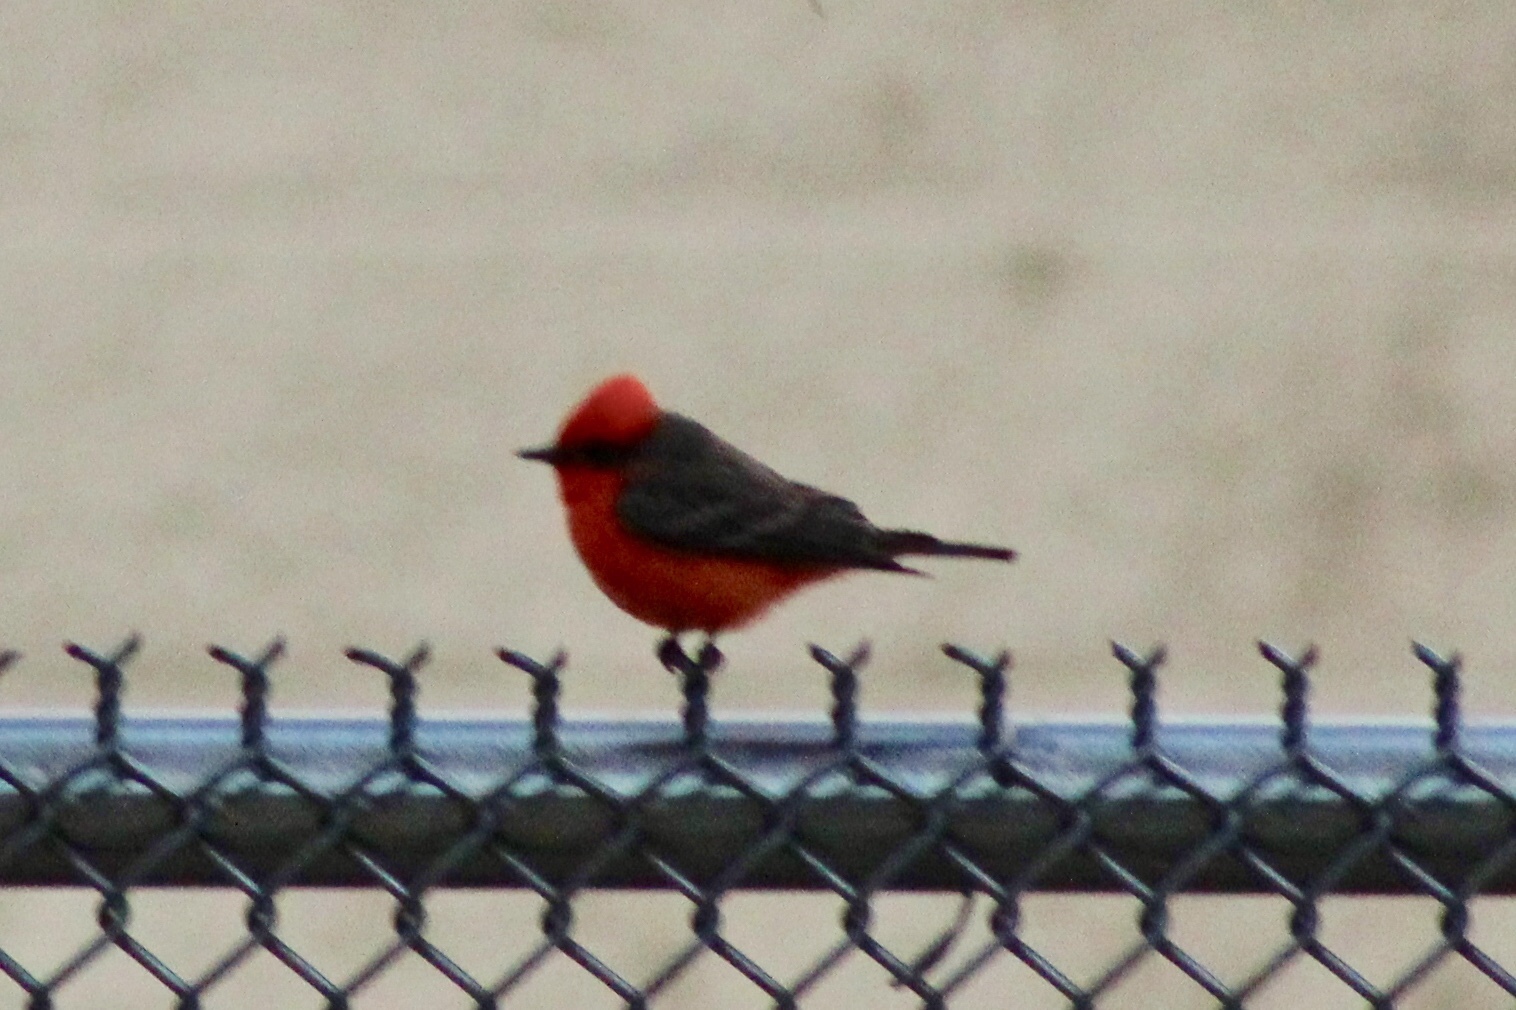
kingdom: Animalia
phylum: Chordata
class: Aves
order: Passeriformes
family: Tyrannidae
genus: Pyrocephalus
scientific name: Pyrocephalus rubinus
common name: Vermilion flycatcher
